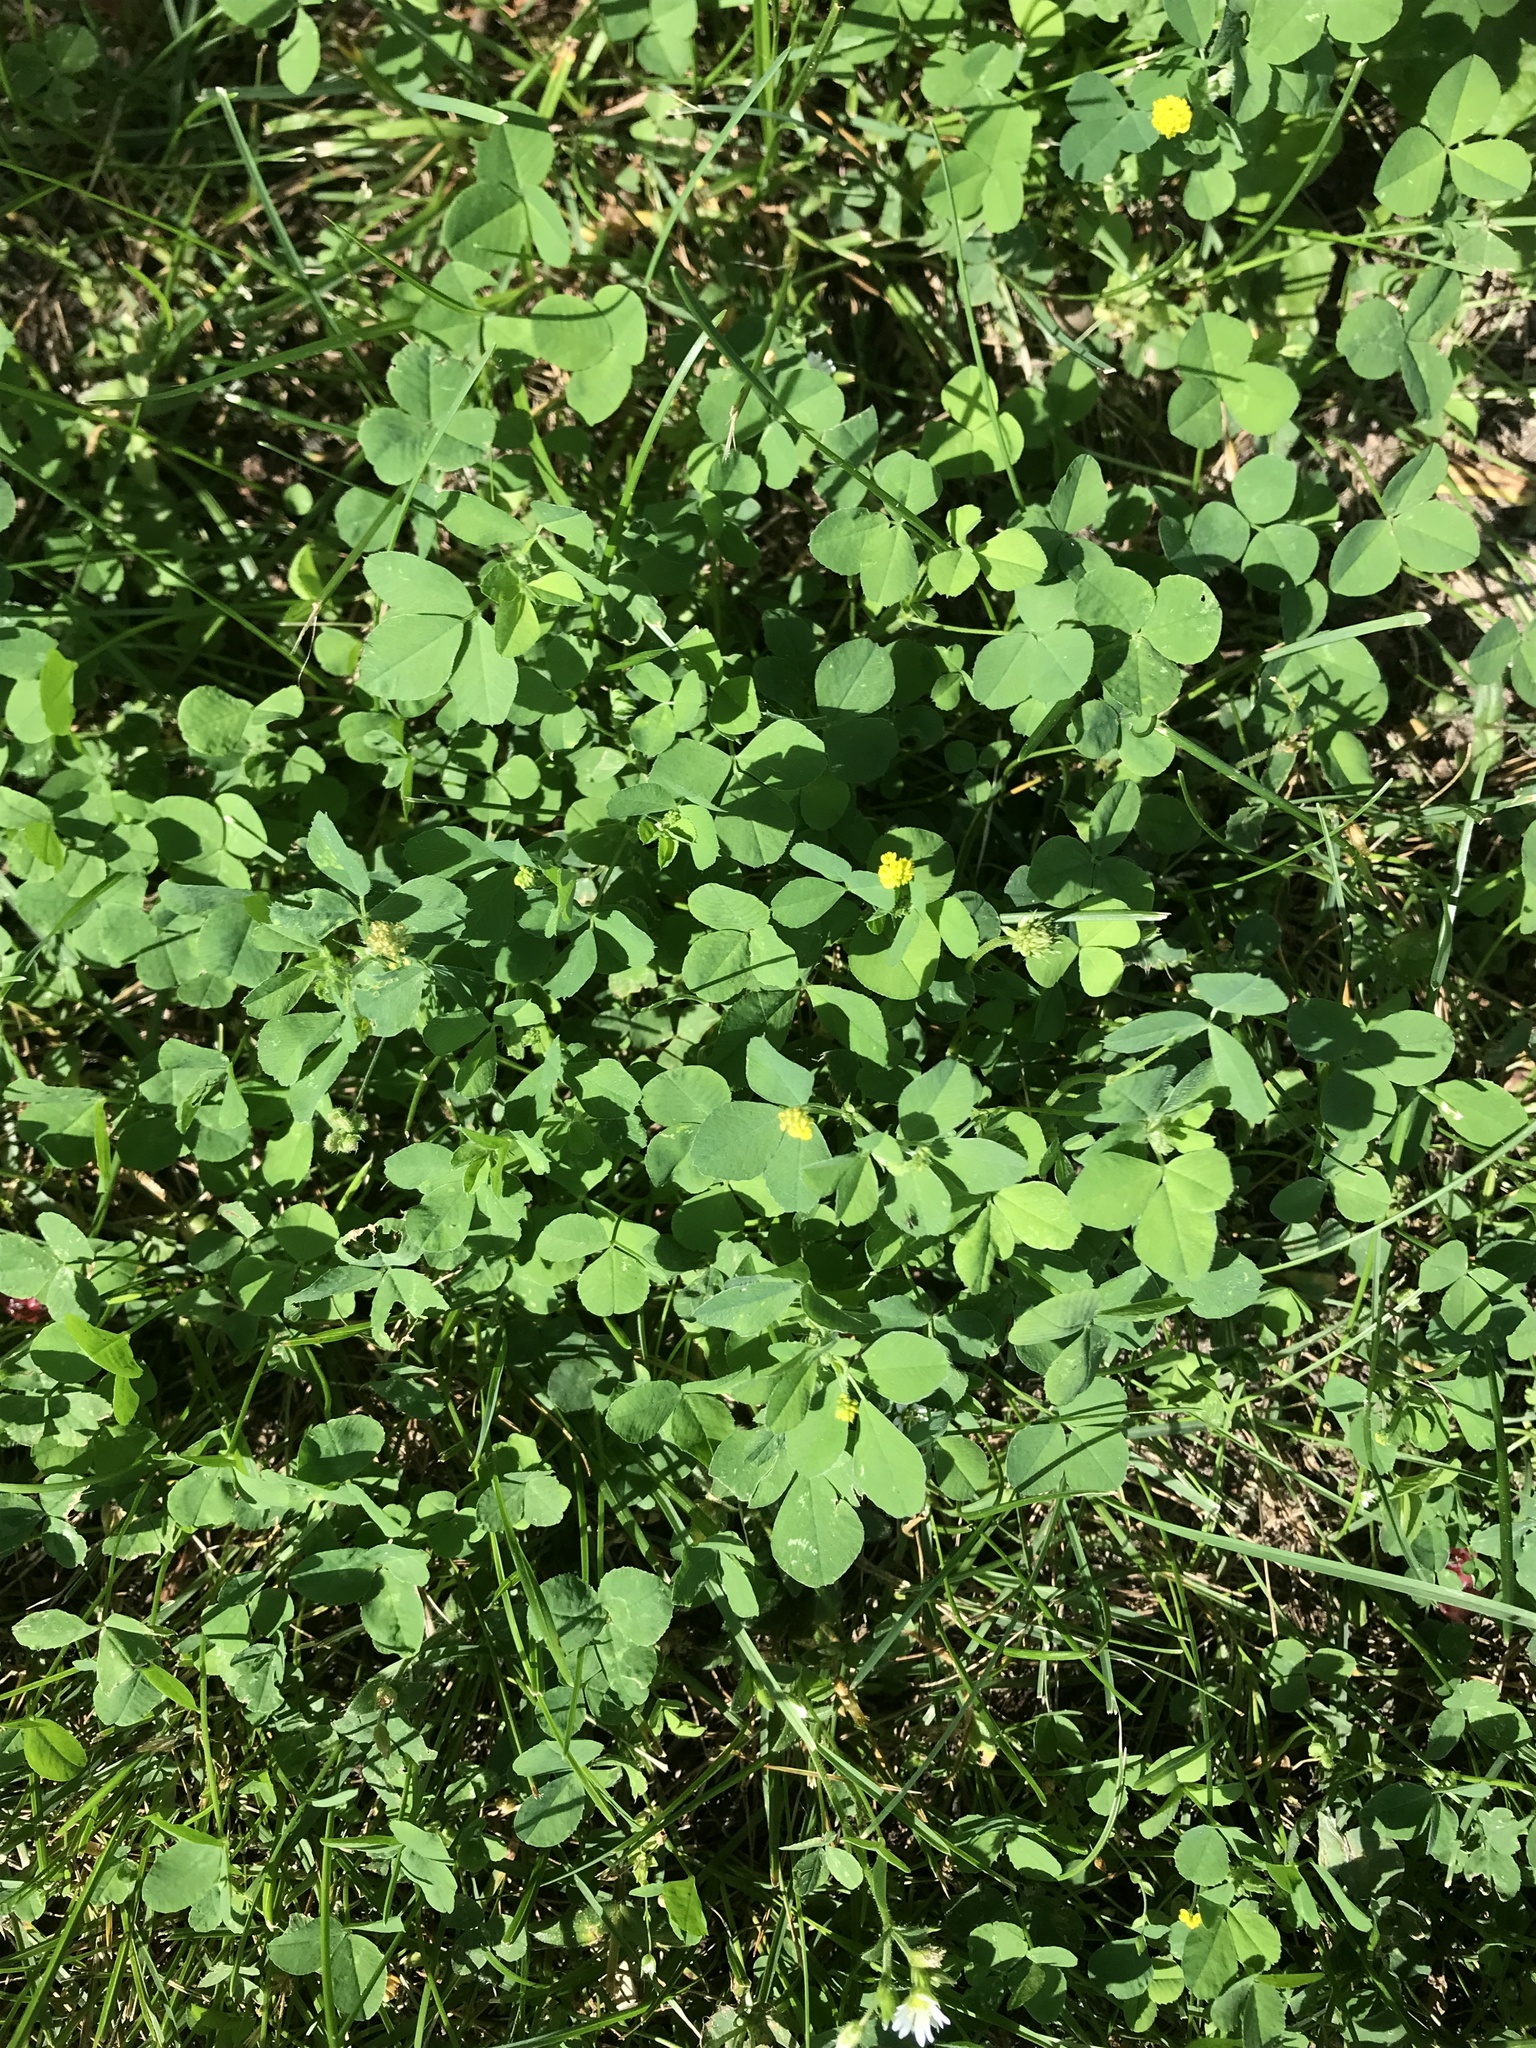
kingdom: Plantae
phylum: Tracheophyta
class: Magnoliopsida
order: Fabales
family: Fabaceae
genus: Medicago
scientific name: Medicago lupulina
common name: Black medick
